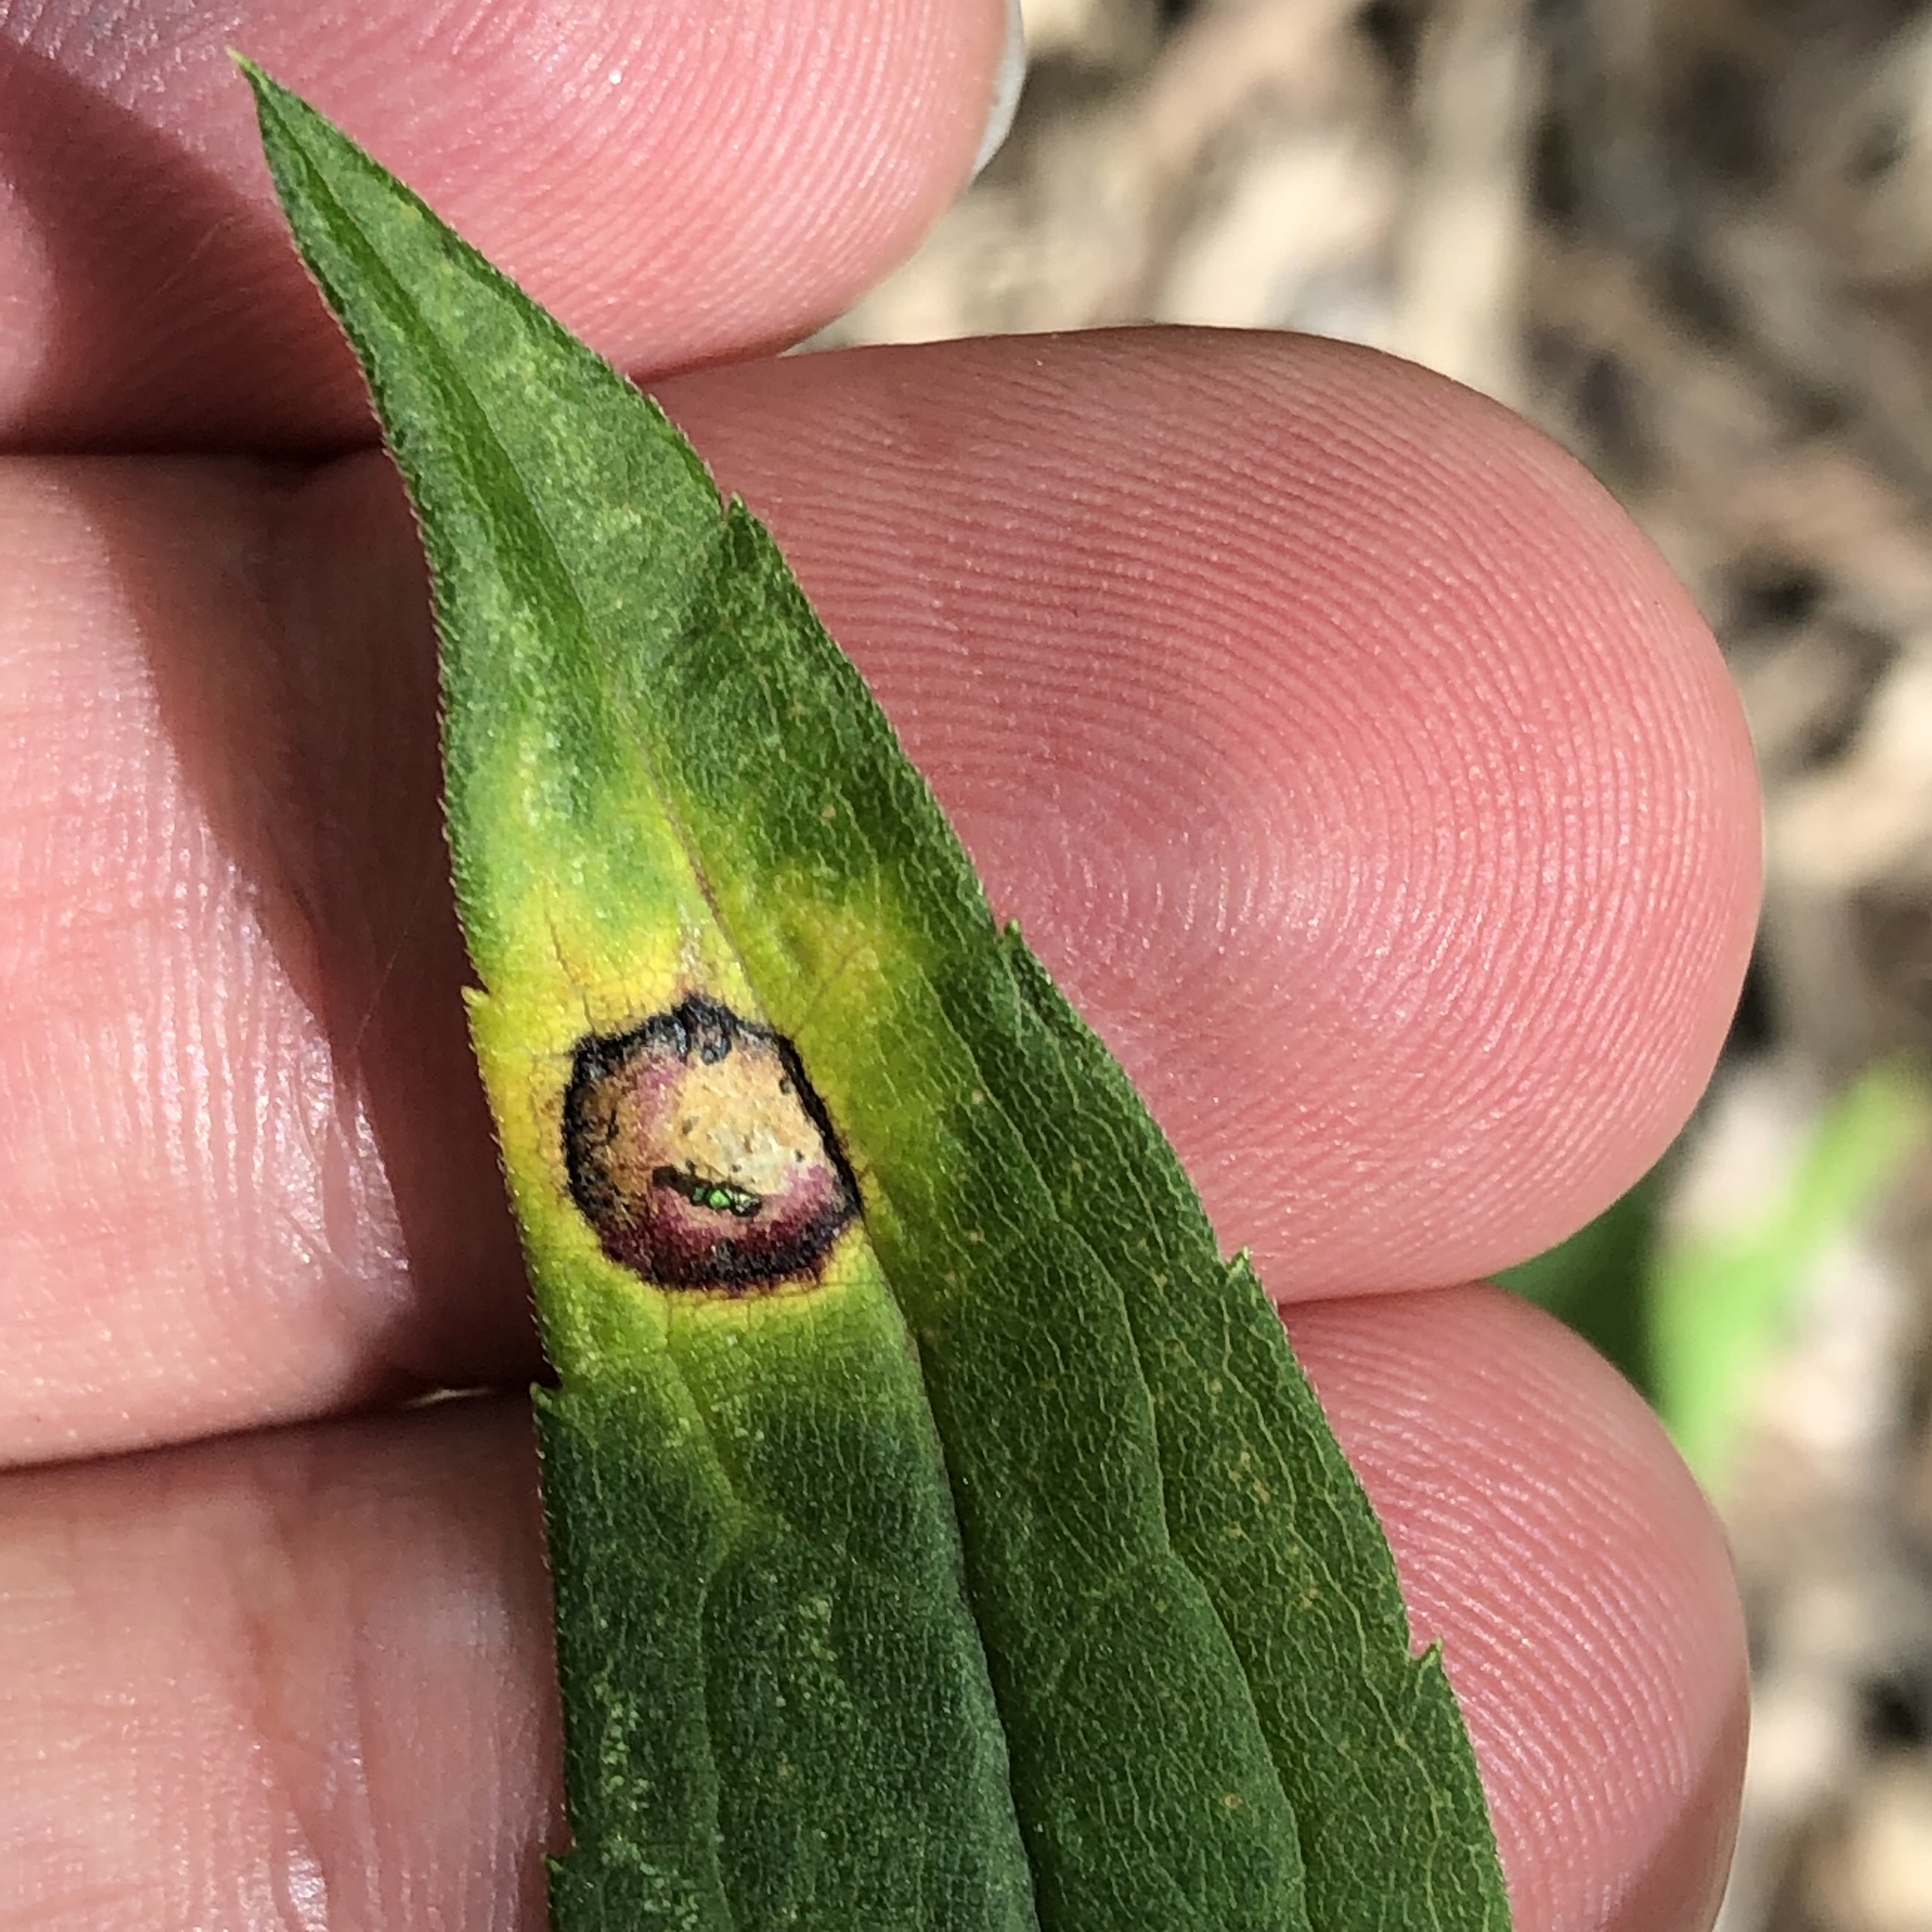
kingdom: Animalia
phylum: Arthropoda
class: Insecta
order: Diptera
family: Cecidomyiidae
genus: Asteromyia
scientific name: Asteromyia carbonifera
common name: Carbonifera goldenrod gall midge
